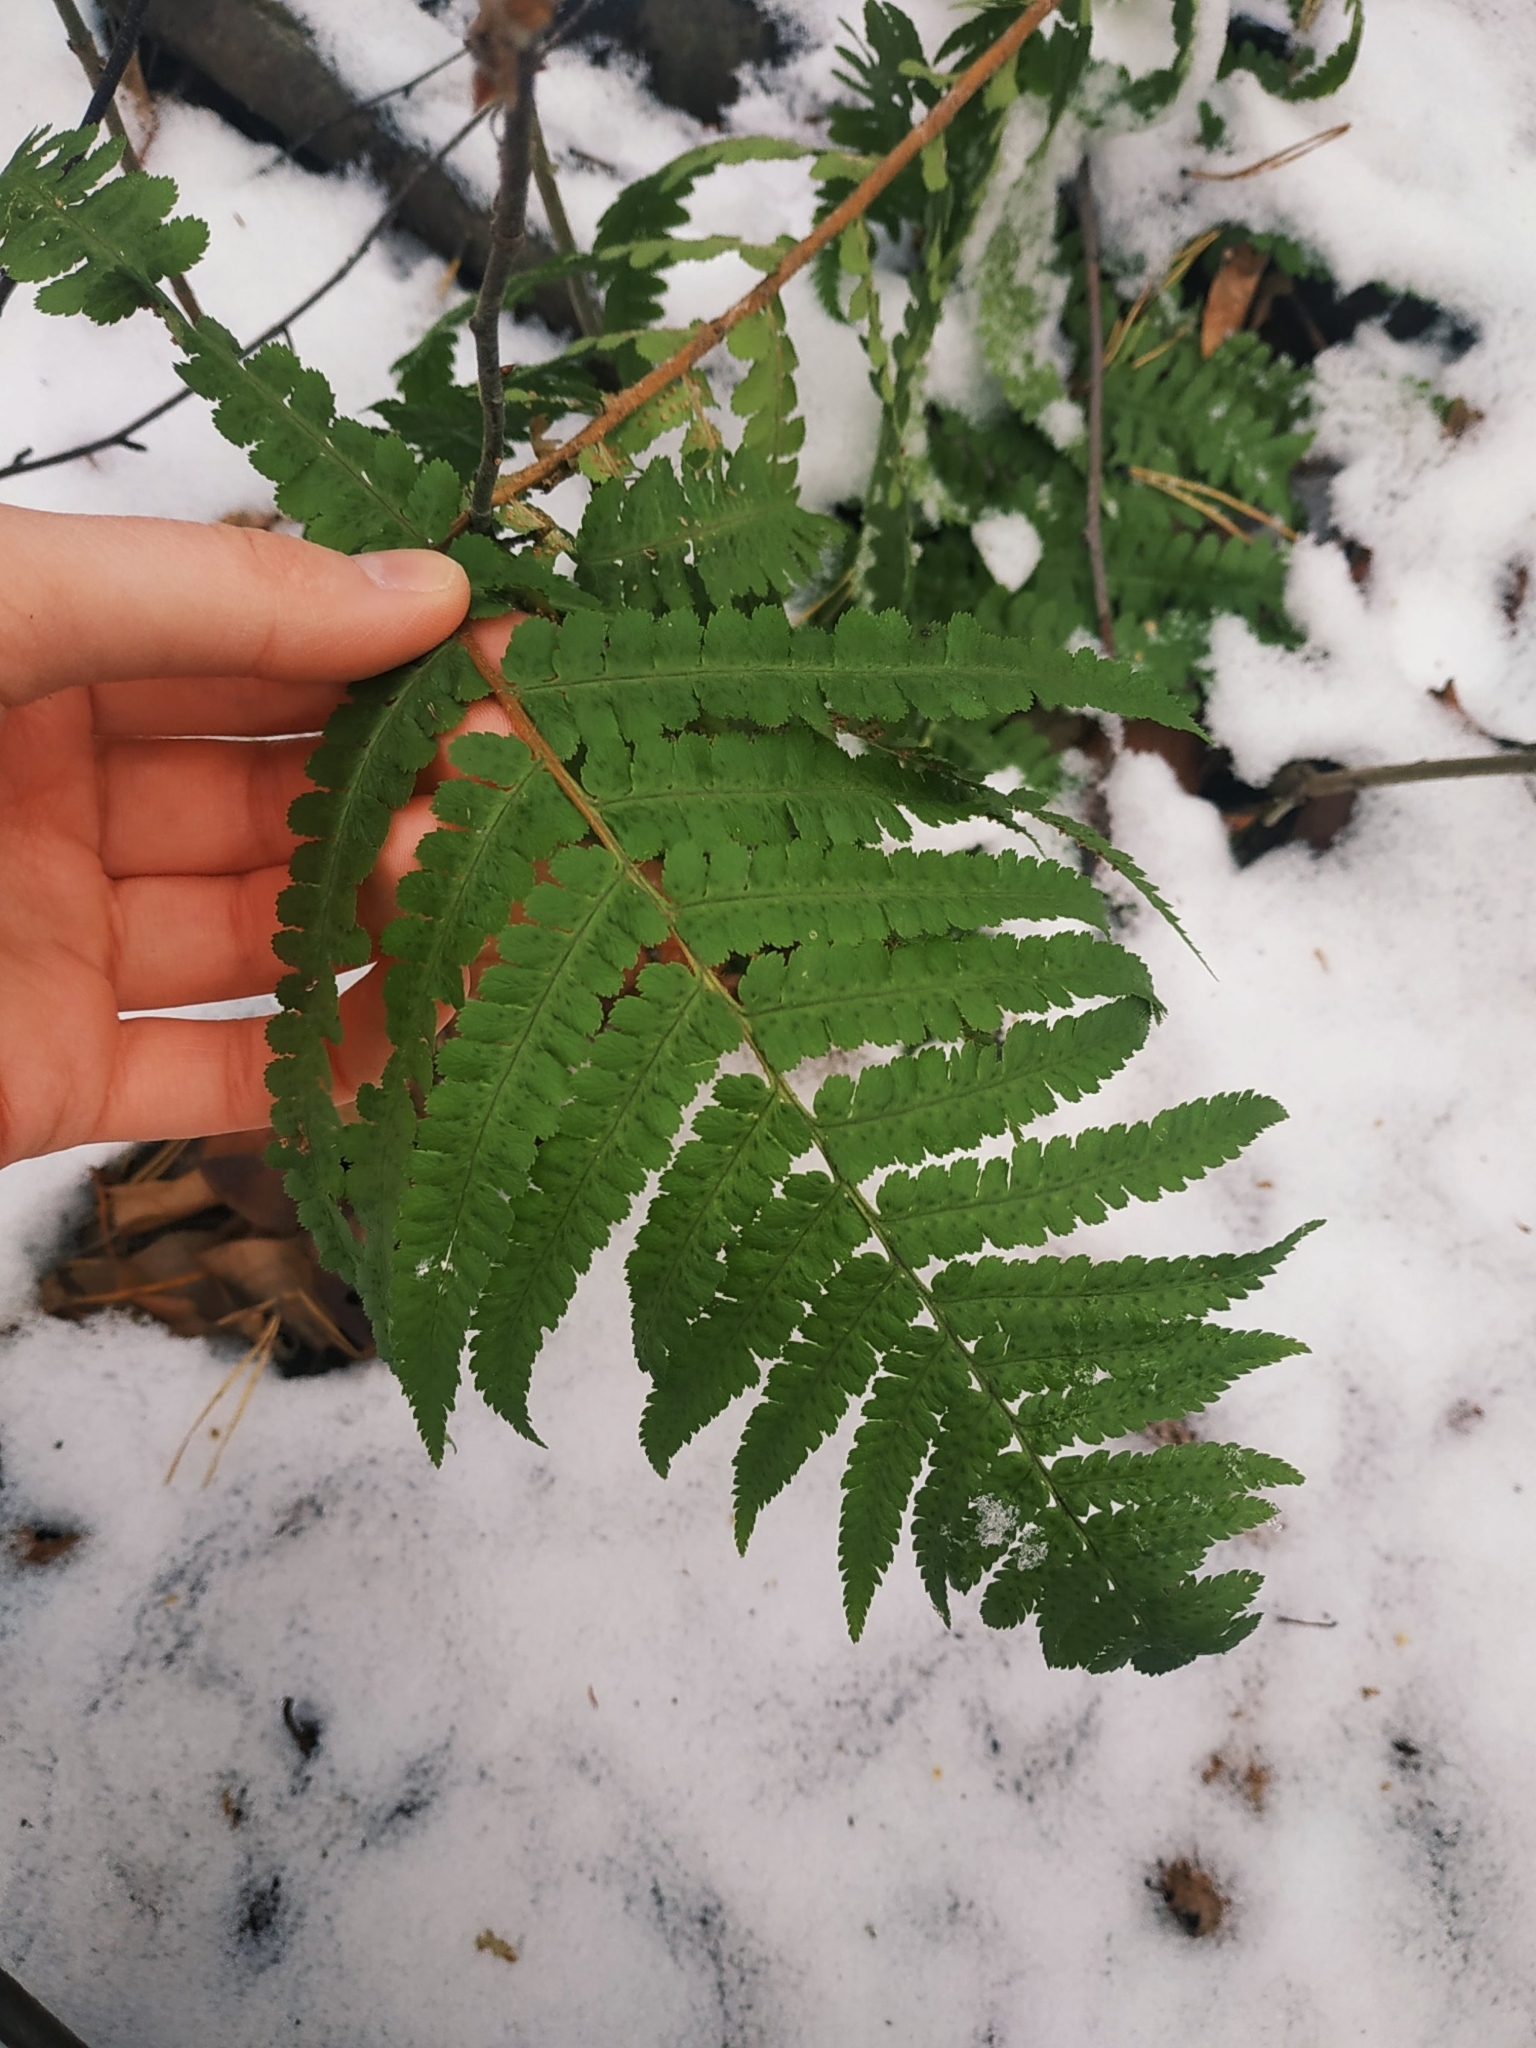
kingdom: Plantae
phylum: Tracheophyta
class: Polypodiopsida
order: Polypodiales
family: Dryopteridaceae
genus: Dryopteris
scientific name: Dryopteris filix-mas
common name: Male fern
